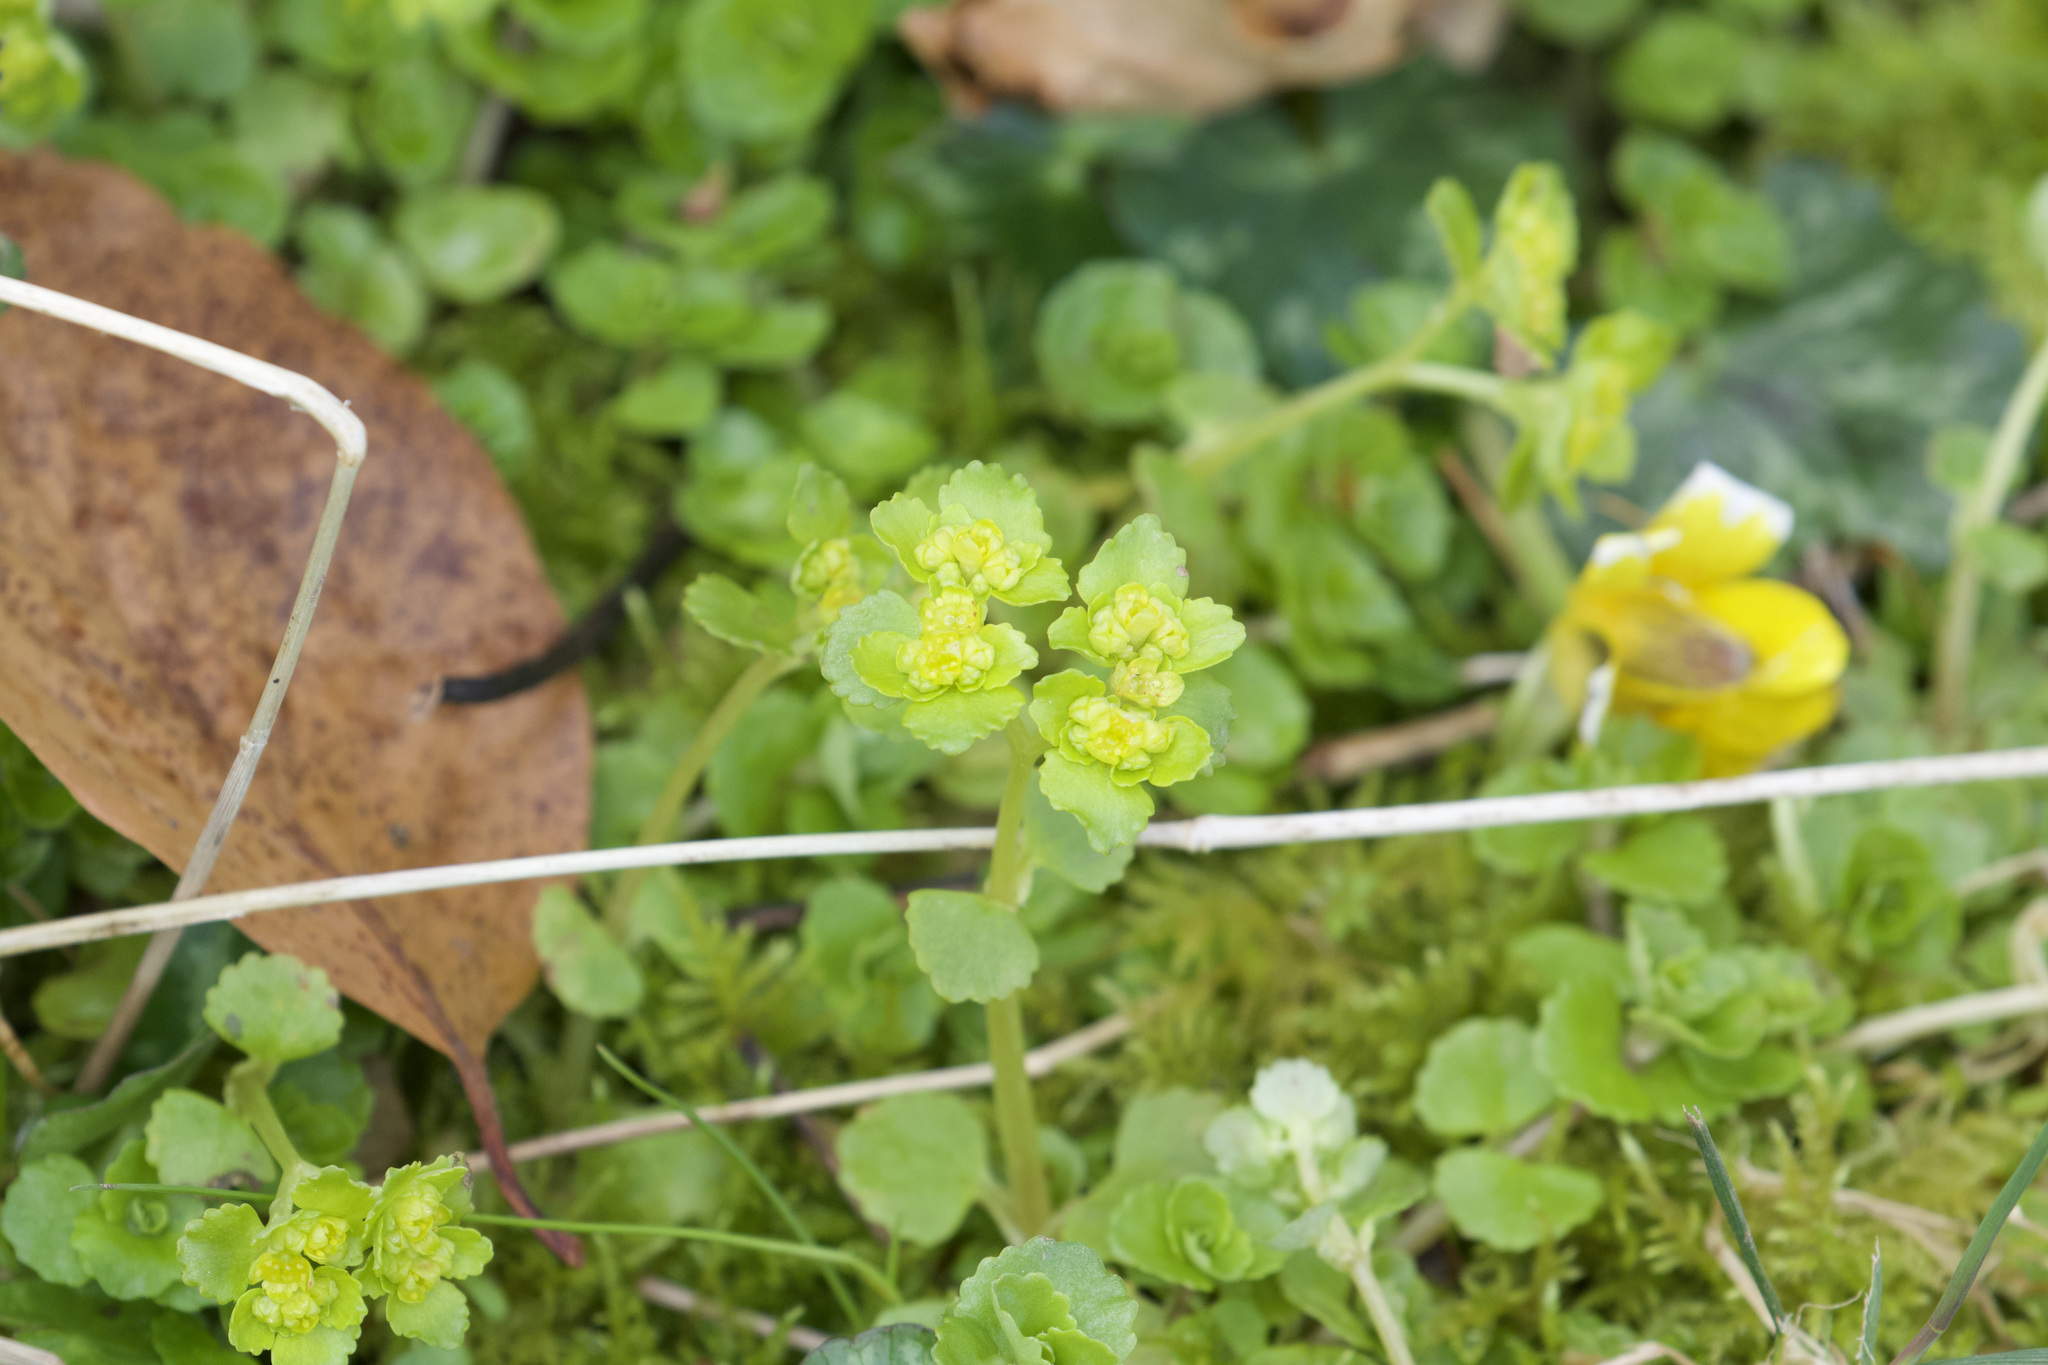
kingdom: Plantae
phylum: Tracheophyta
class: Magnoliopsida
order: Saxifragales
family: Saxifragaceae
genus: Chrysosplenium
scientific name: Chrysosplenium oppositifolium
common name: Opposite-leaved golden-saxifrage
